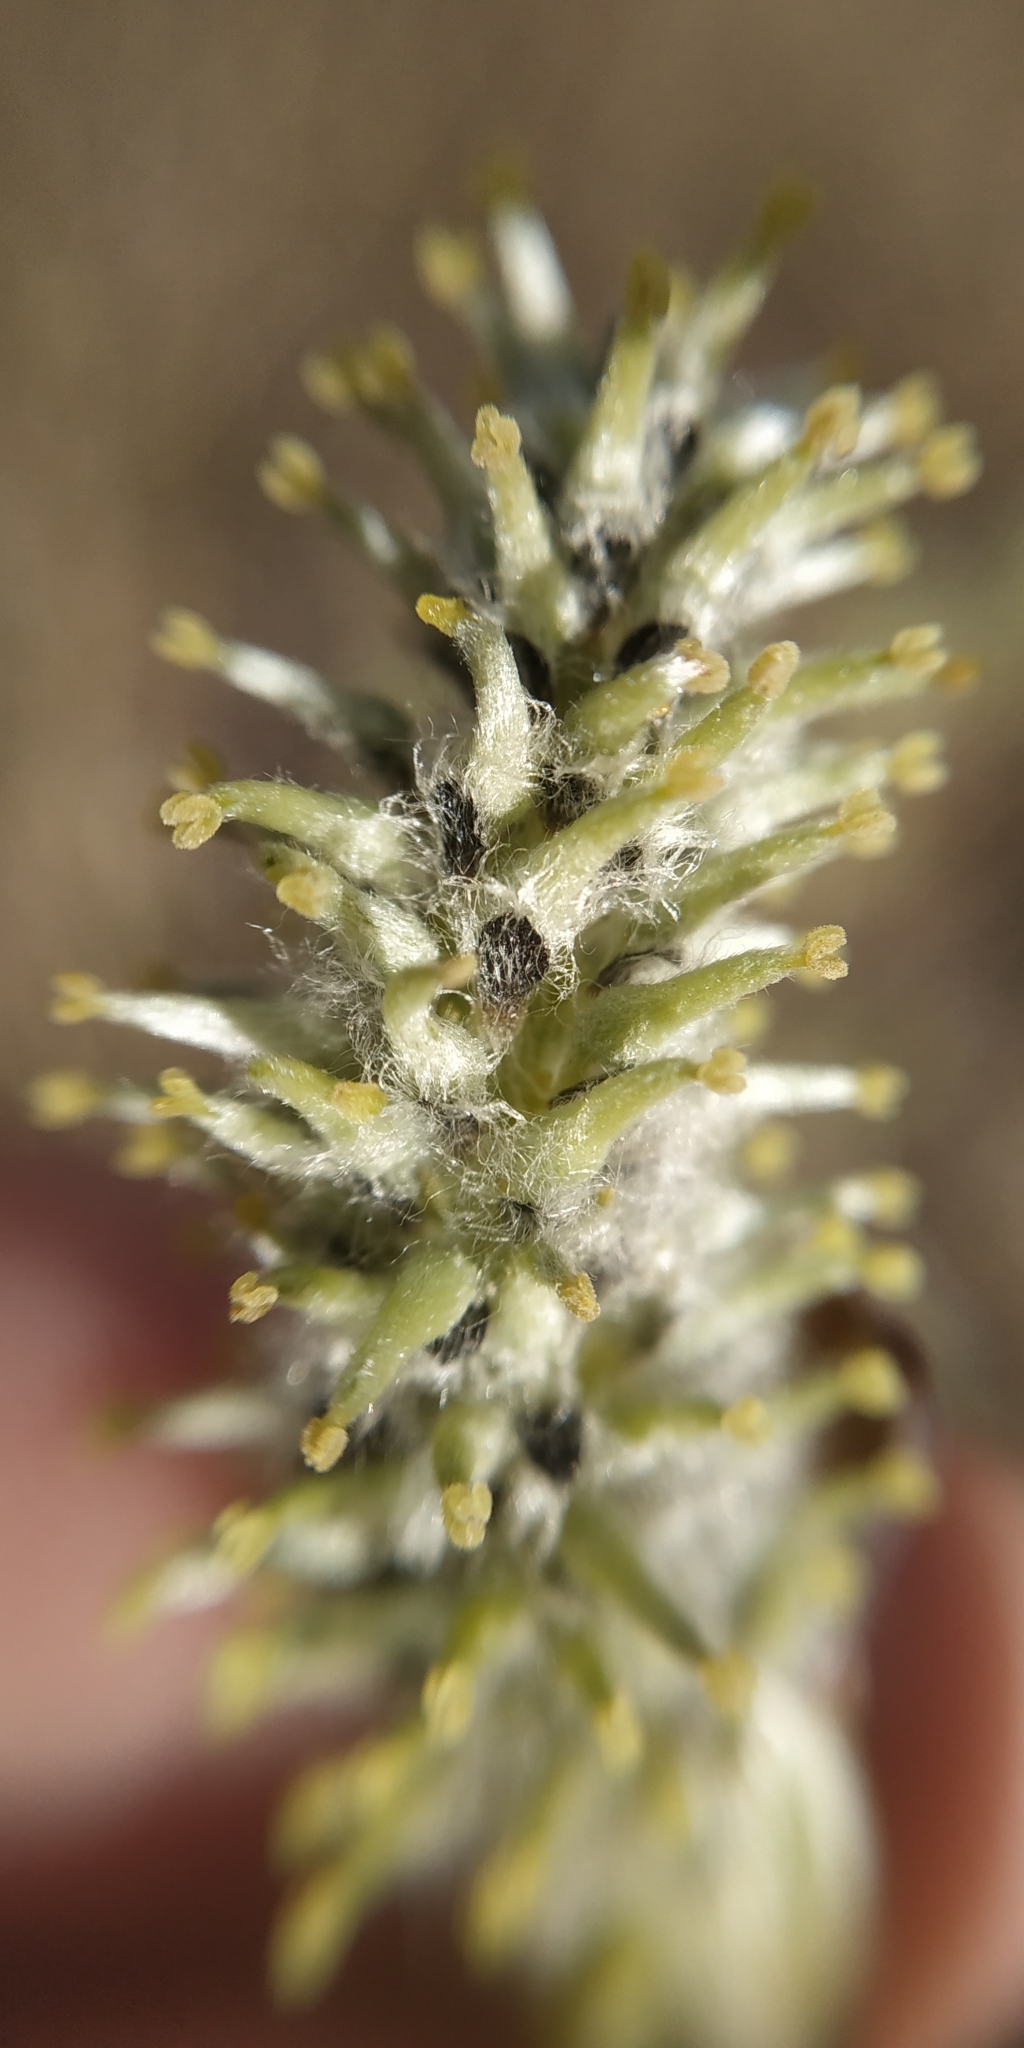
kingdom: Plantae
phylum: Tracheophyta
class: Magnoliopsida
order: Malpighiales
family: Salicaceae
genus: Salix
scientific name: Salix cinerea
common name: Common sallow
